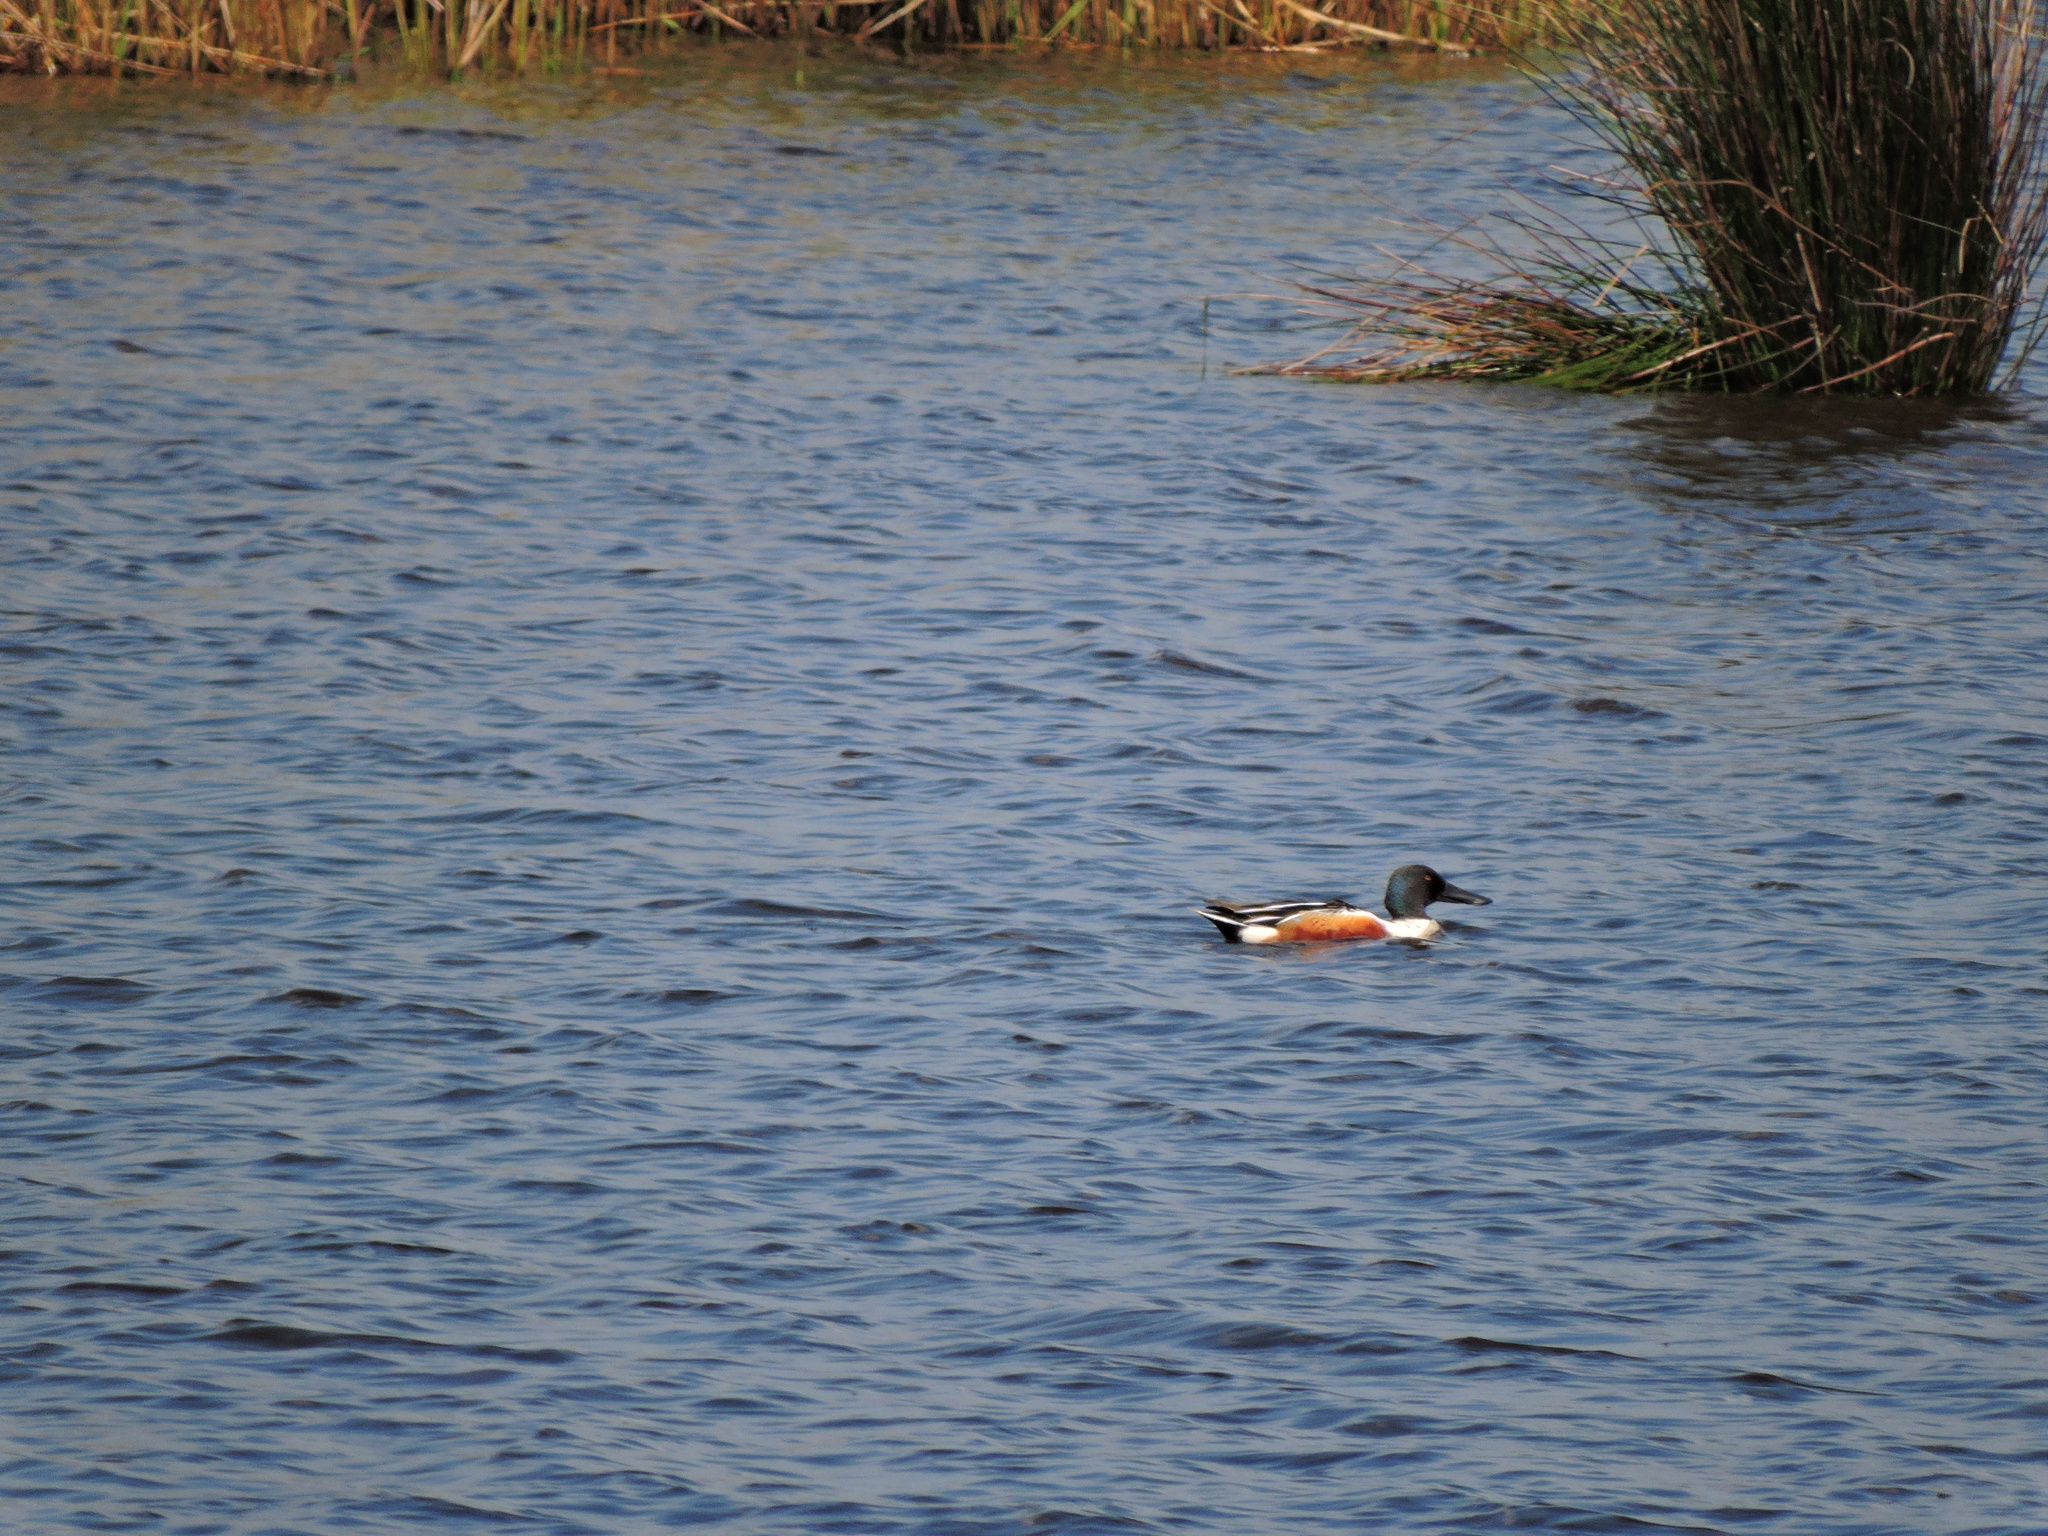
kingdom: Animalia
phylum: Chordata
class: Aves
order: Anseriformes
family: Anatidae
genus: Spatula
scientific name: Spatula clypeata
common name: Northern shoveler
